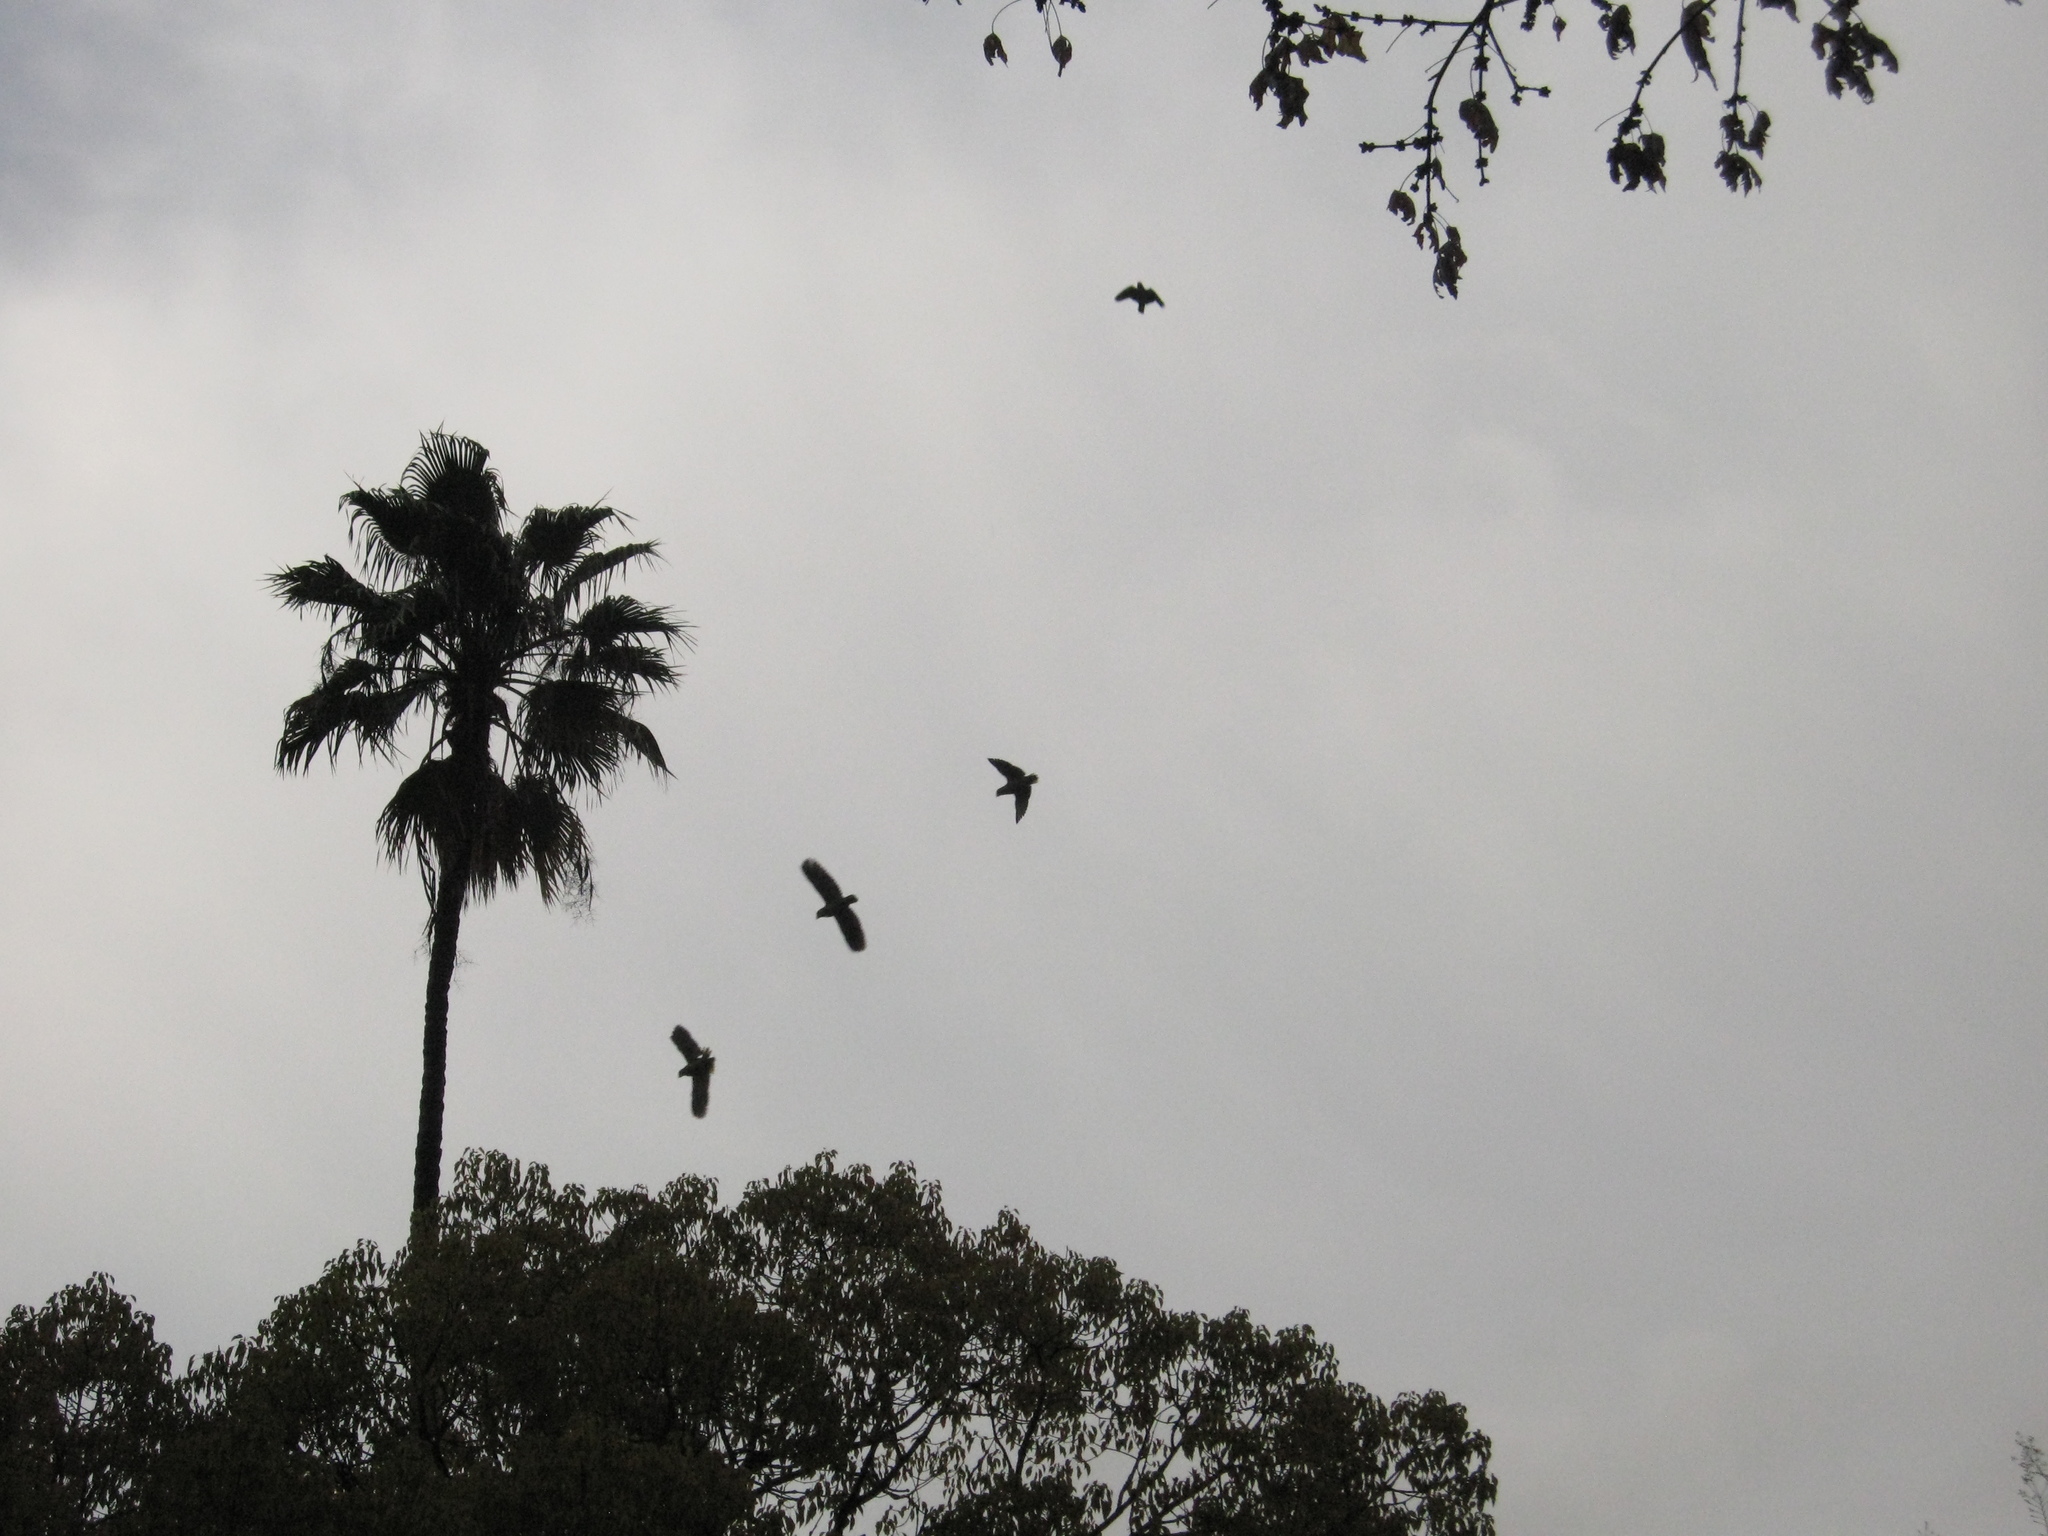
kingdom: Animalia
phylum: Chordata
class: Aves
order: Psittaciformes
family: Psittacidae
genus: Amazona
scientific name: Amazona viridigenalis
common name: Red-crowned amazon
